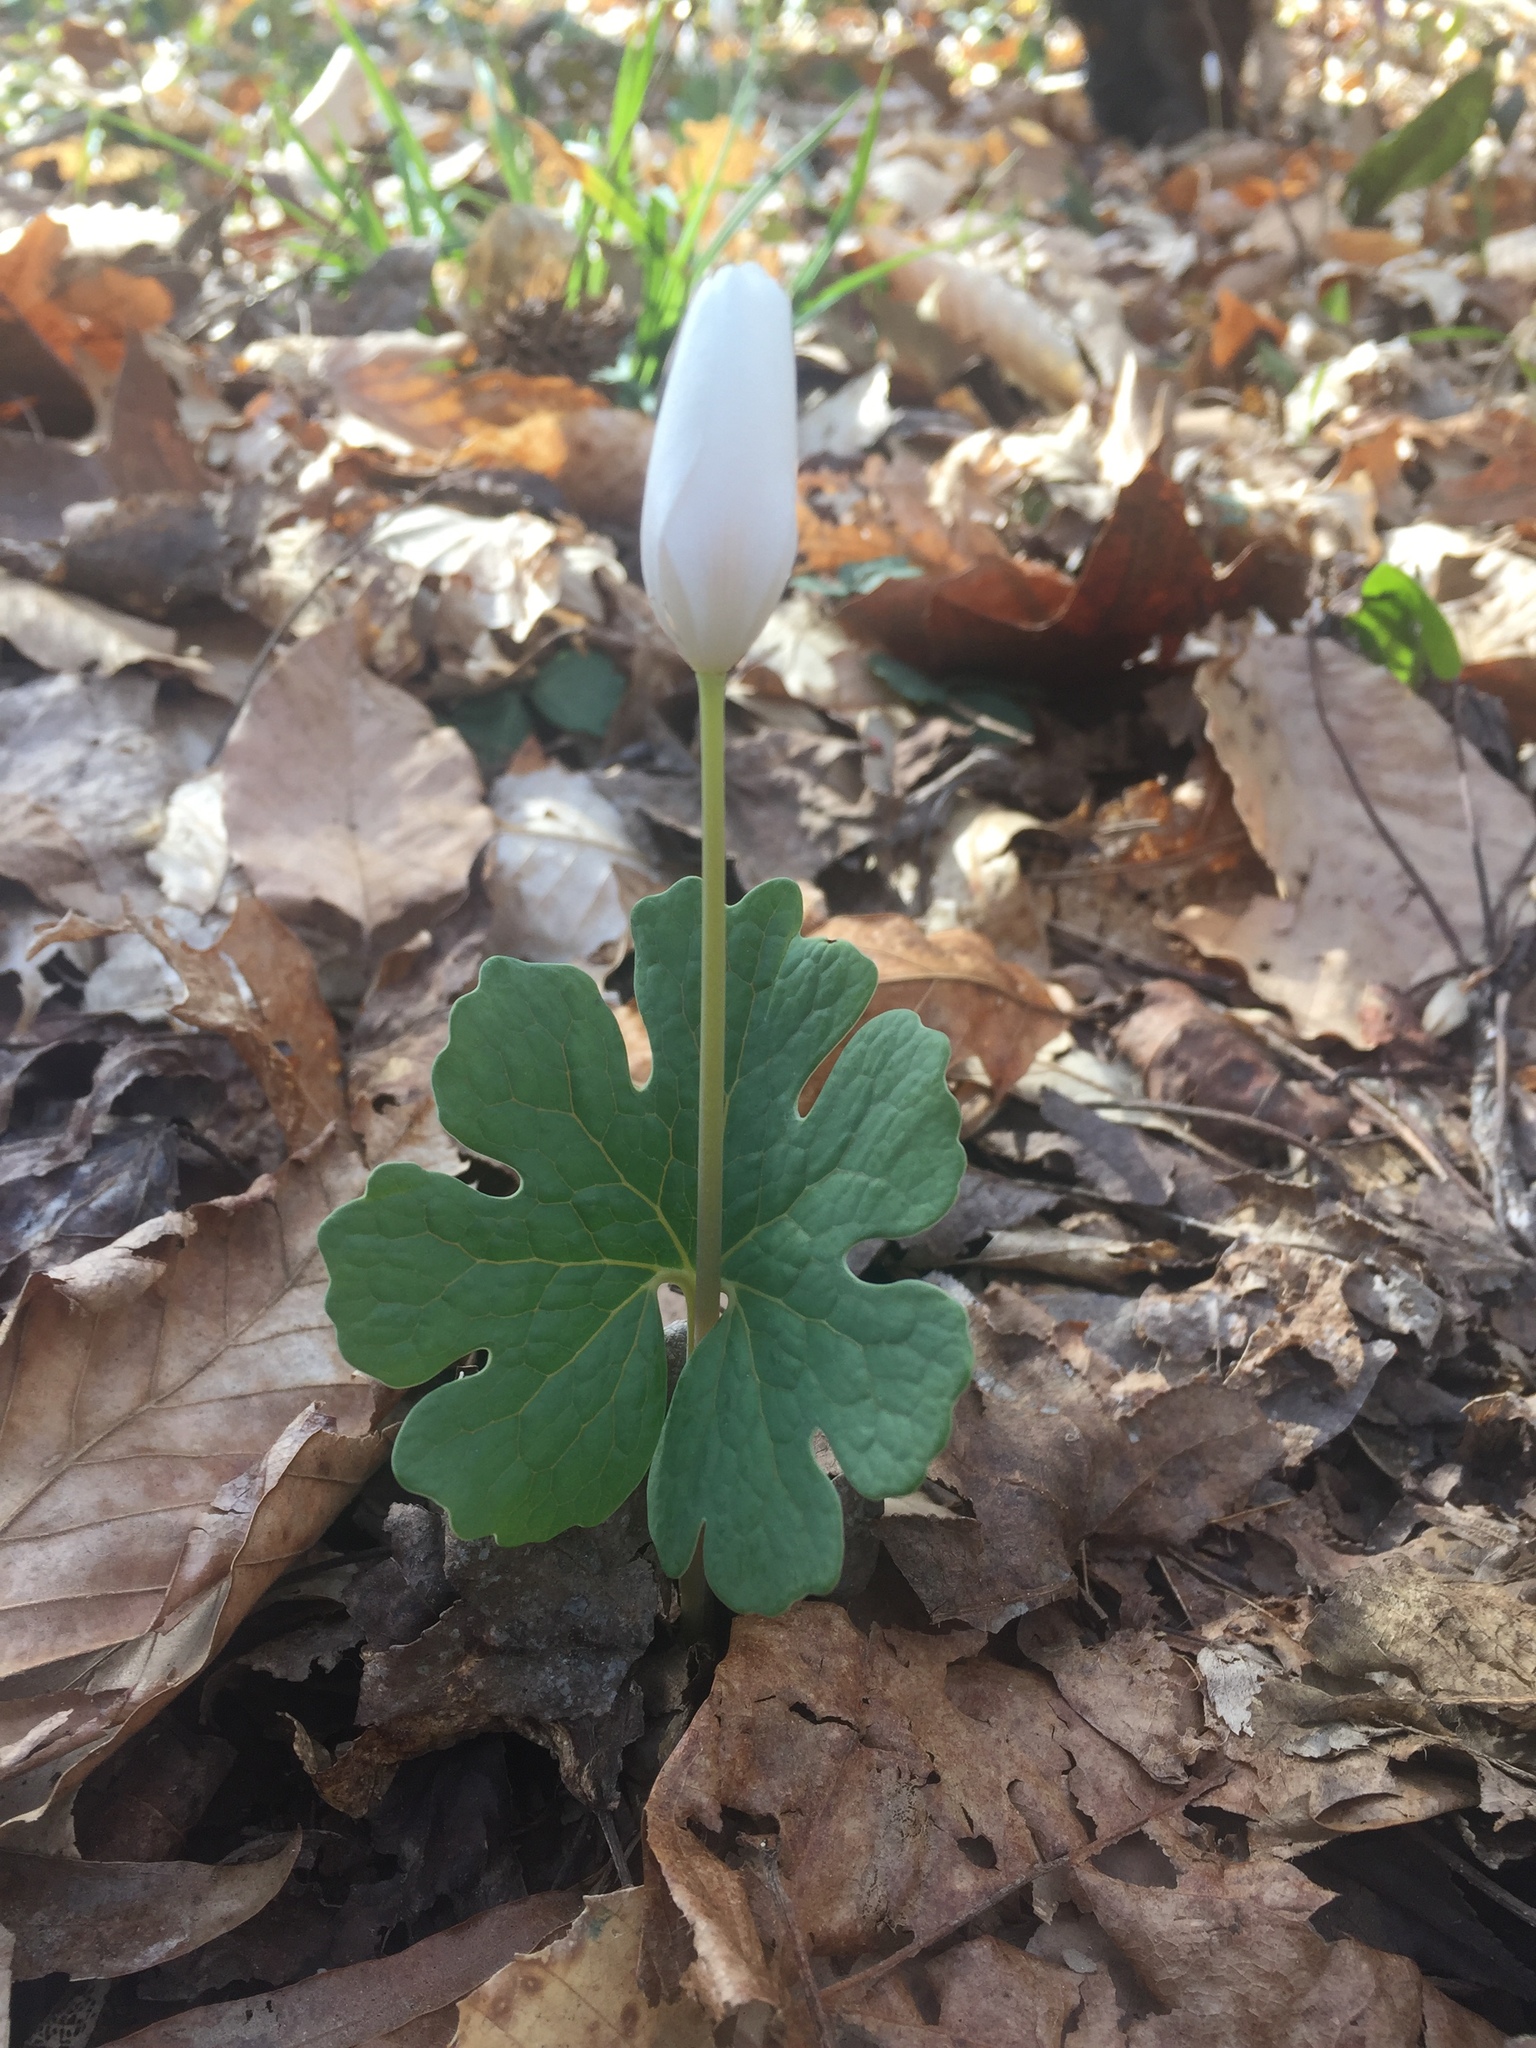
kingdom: Plantae
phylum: Tracheophyta
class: Magnoliopsida
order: Ranunculales
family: Papaveraceae
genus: Sanguinaria
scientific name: Sanguinaria canadensis
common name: Bloodroot
